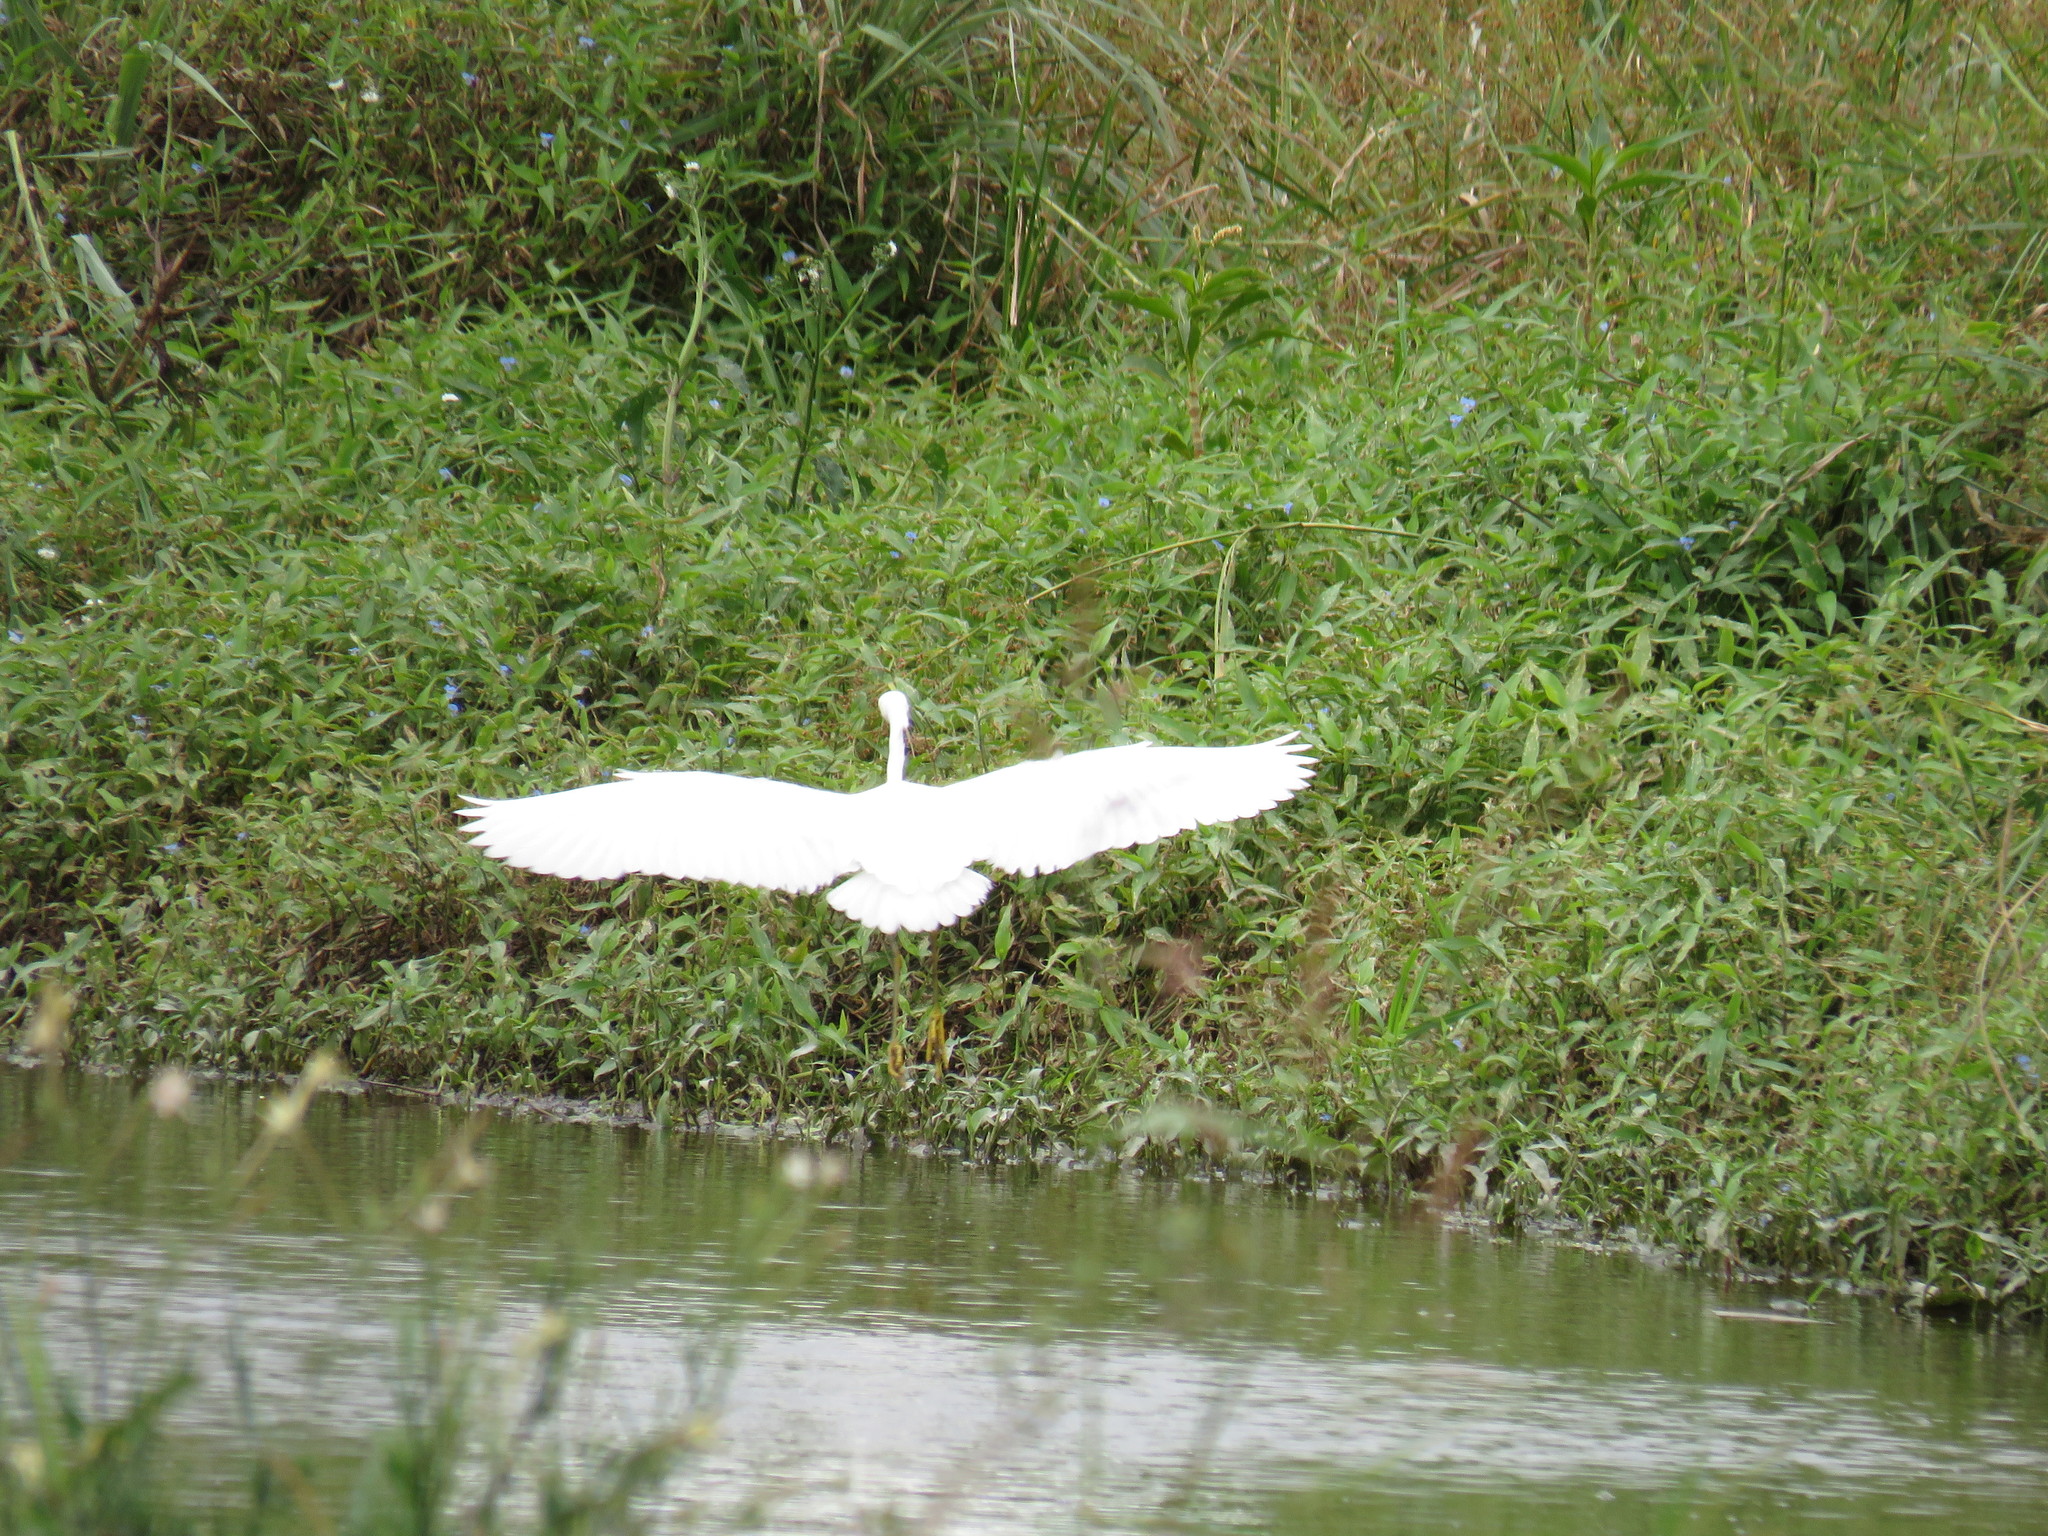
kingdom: Animalia
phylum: Chordata
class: Aves
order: Pelecaniformes
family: Ardeidae
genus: Egretta
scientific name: Egretta thula
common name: Snowy egret
